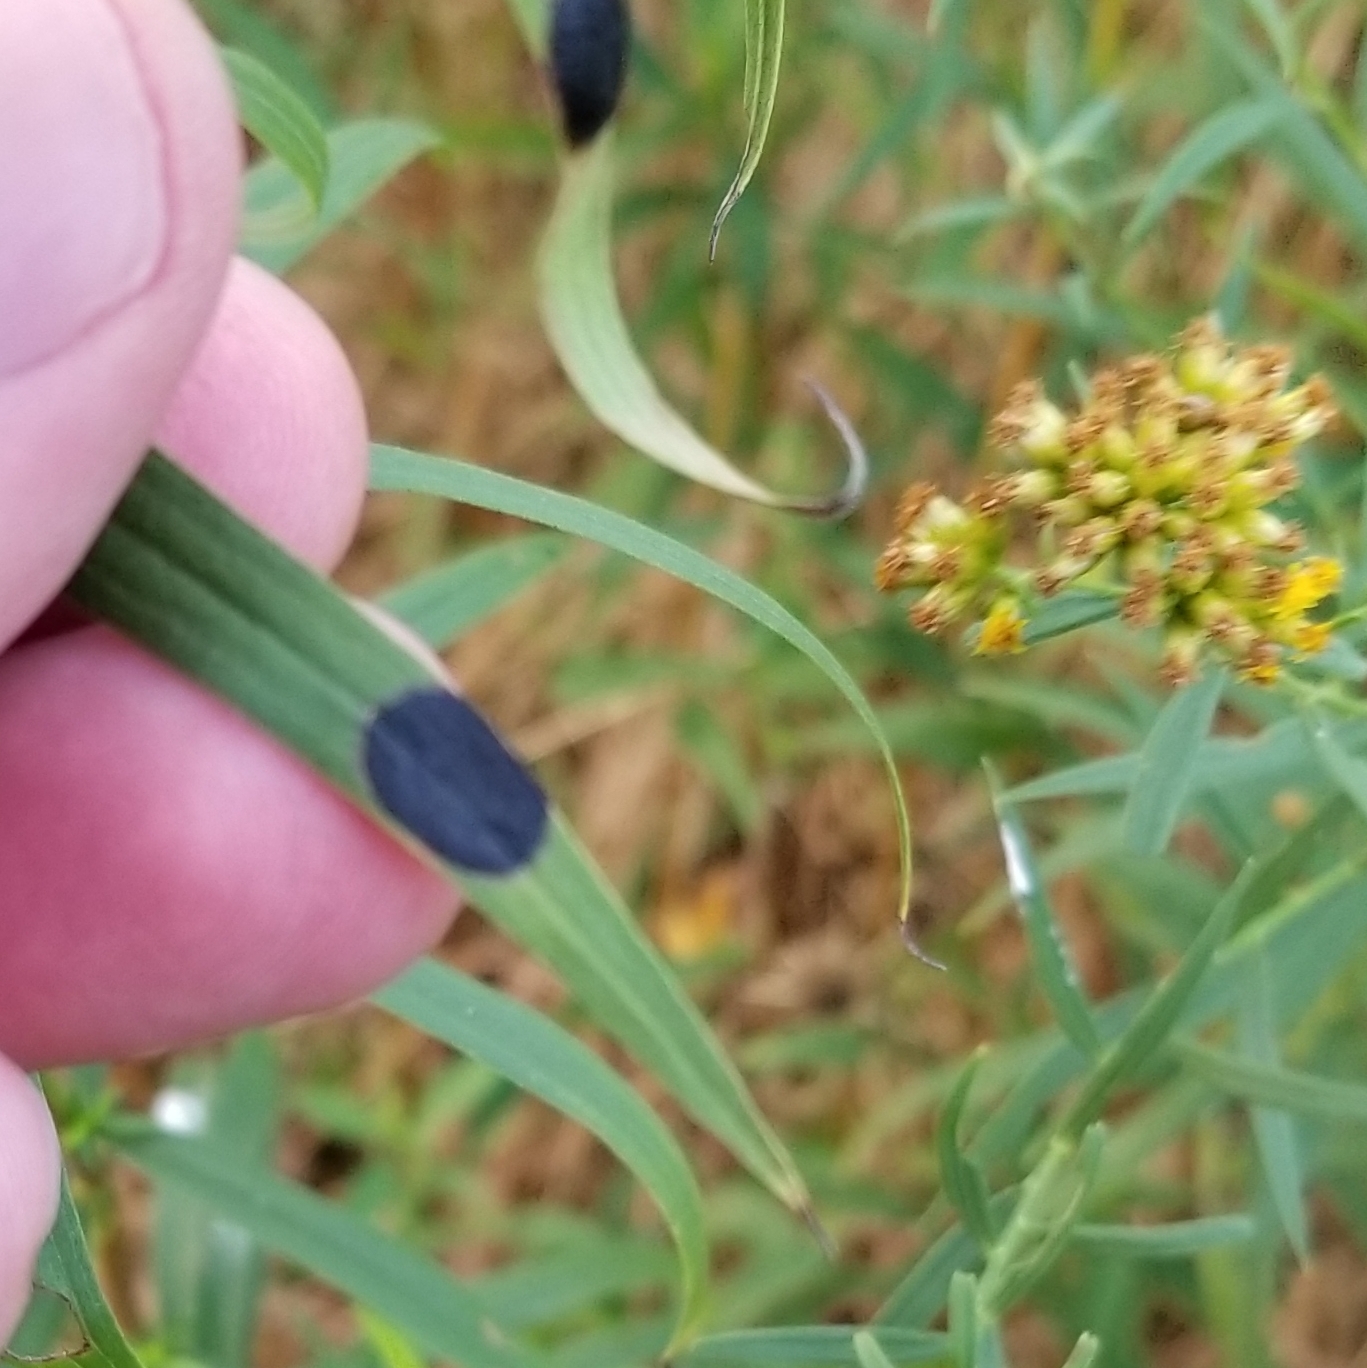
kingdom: Animalia
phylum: Arthropoda
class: Insecta
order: Diptera
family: Cecidomyiidae
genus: Asteromyia
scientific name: Asteromyia euthamiae
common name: Euthamia leaf gall midge
